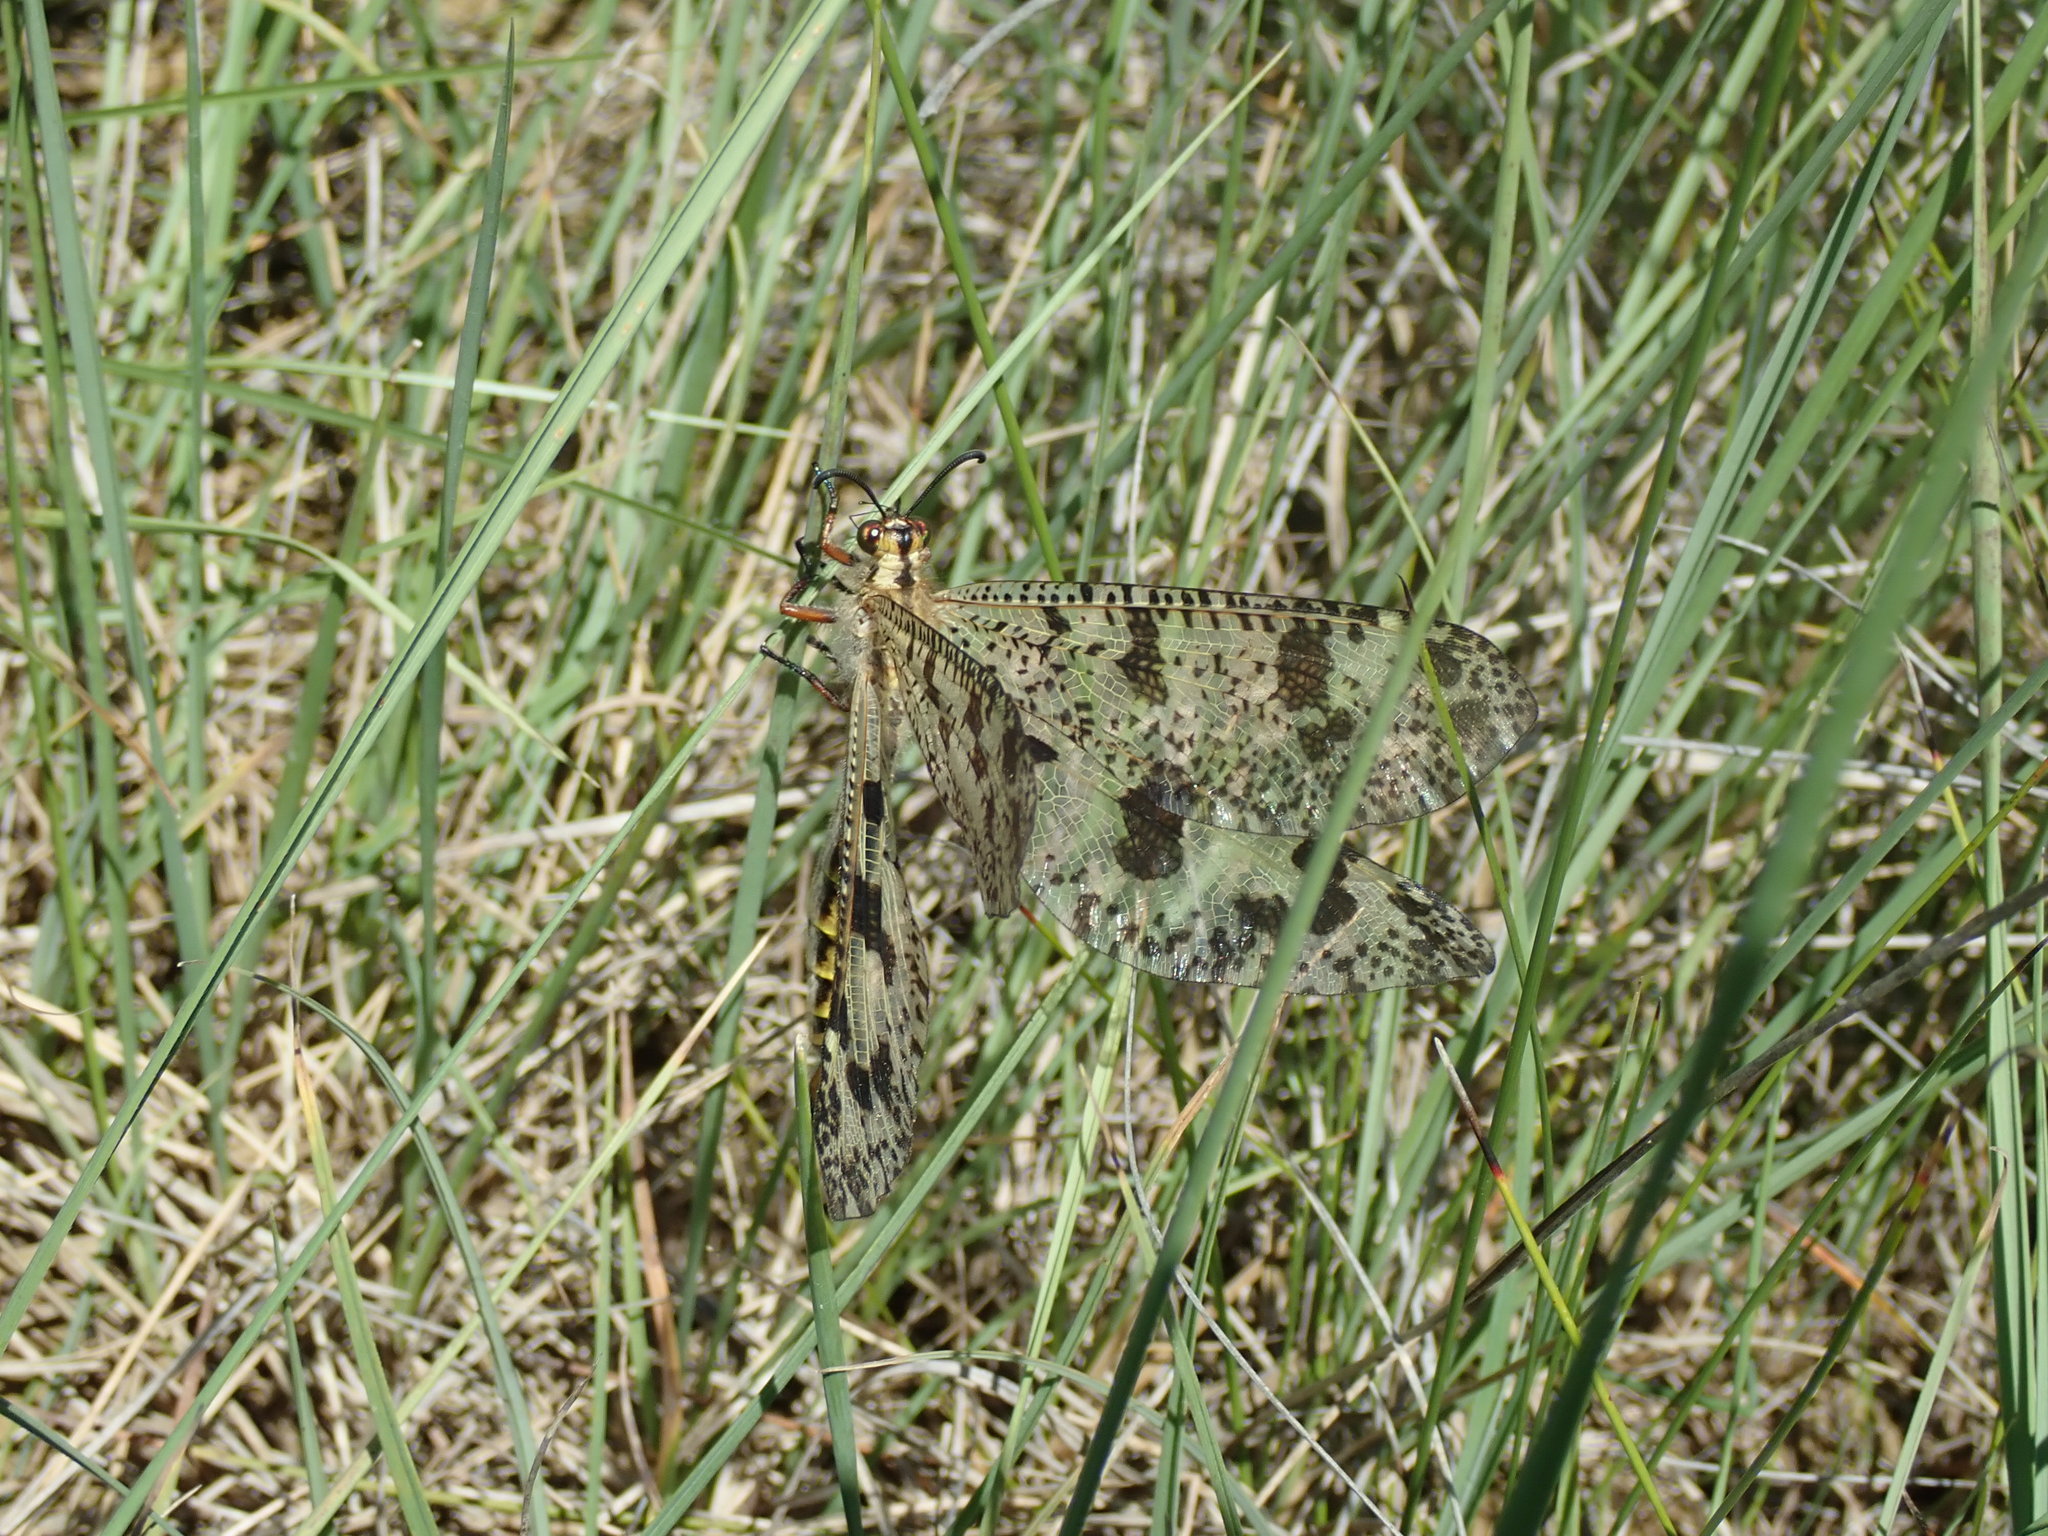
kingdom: Animalia
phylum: Arthropoda
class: Insecta
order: Neuroptera
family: Myrmeleontidae
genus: Palpares
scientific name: Palpares libelluloides
